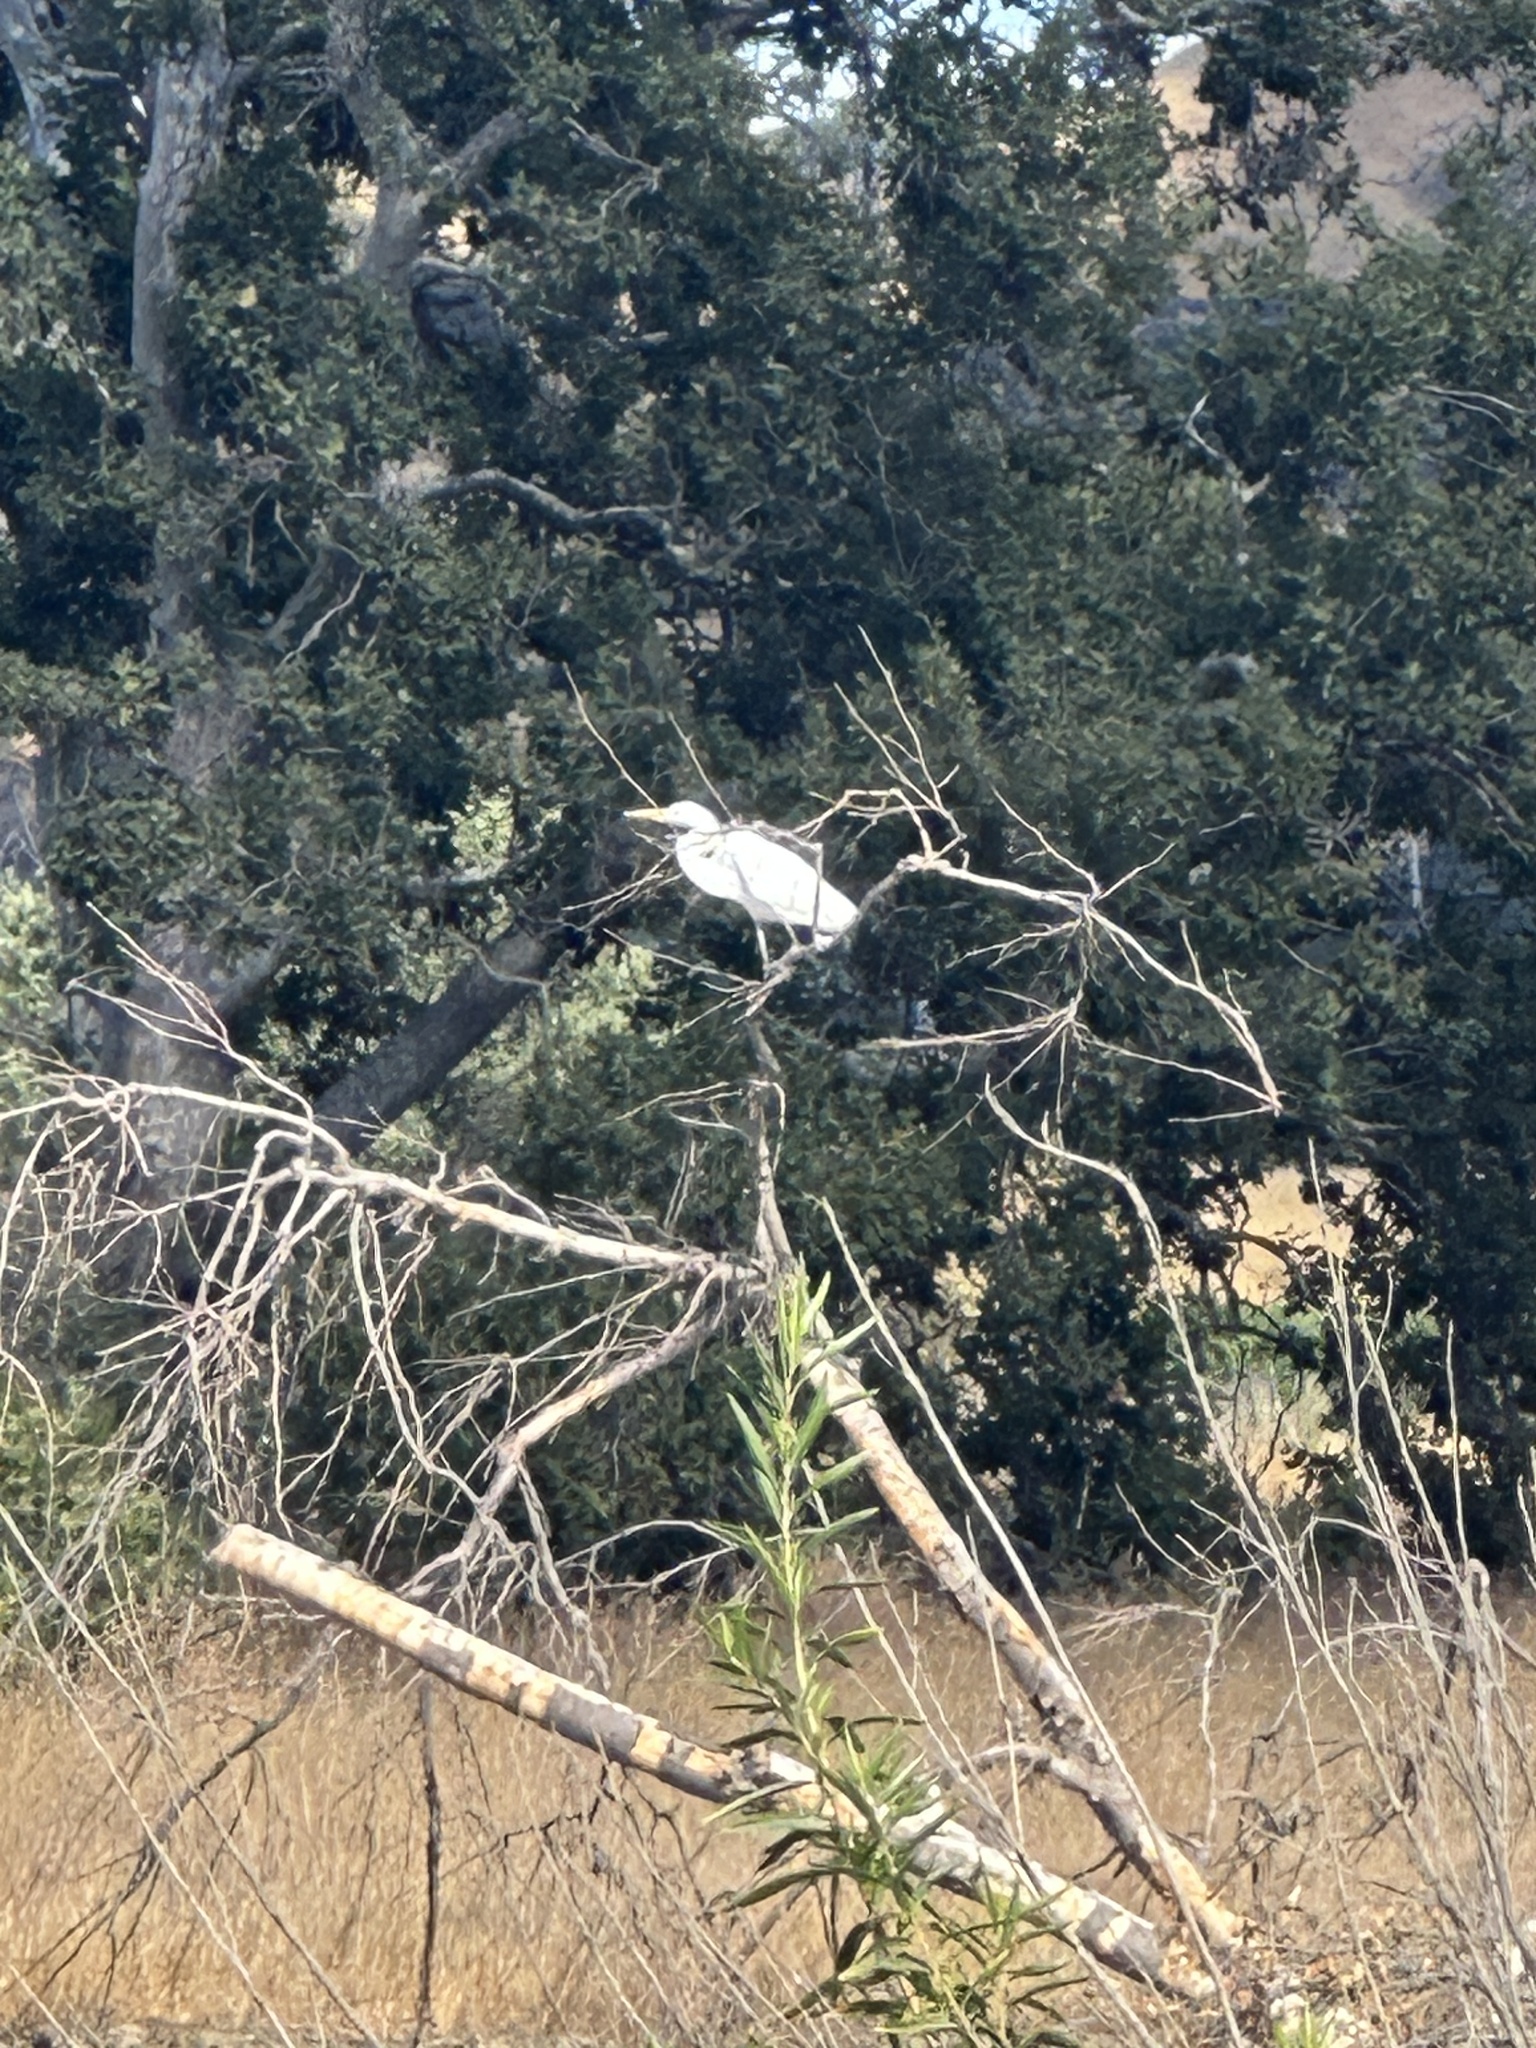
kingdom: Animalia
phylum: Chordata
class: Aves
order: Pelecaniformes
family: Ardeidae
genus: Ardea
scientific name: Ardea alba
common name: Great egret
